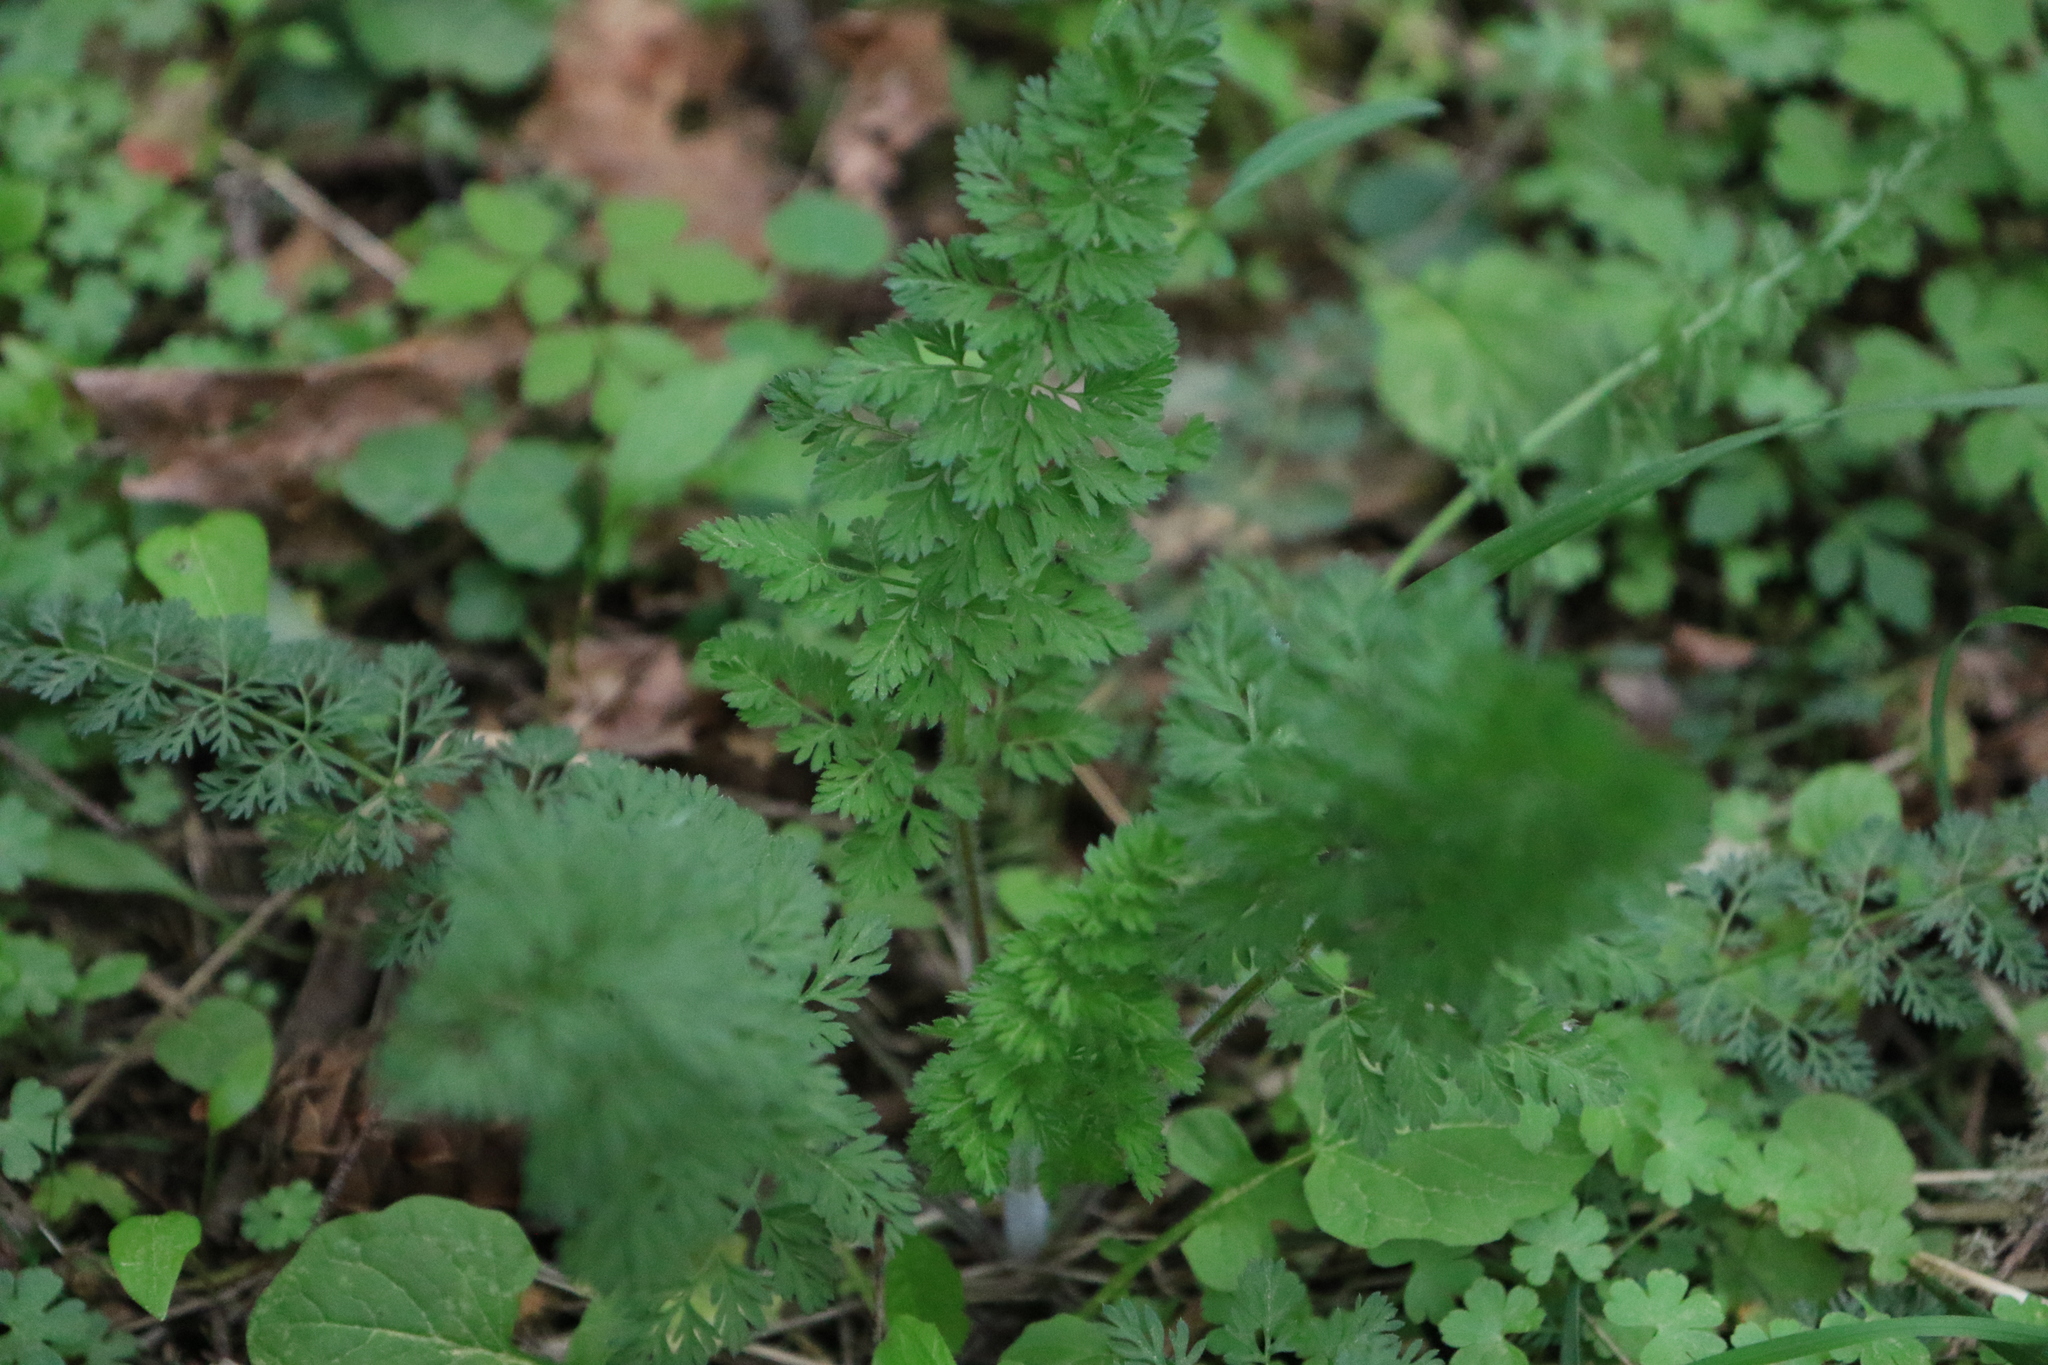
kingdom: Plantae
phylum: Tracheophyta
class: Magnoliopsida
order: Apiales
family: Apiaceae
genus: Daucus
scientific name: Daucus carota
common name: Wild carrot
